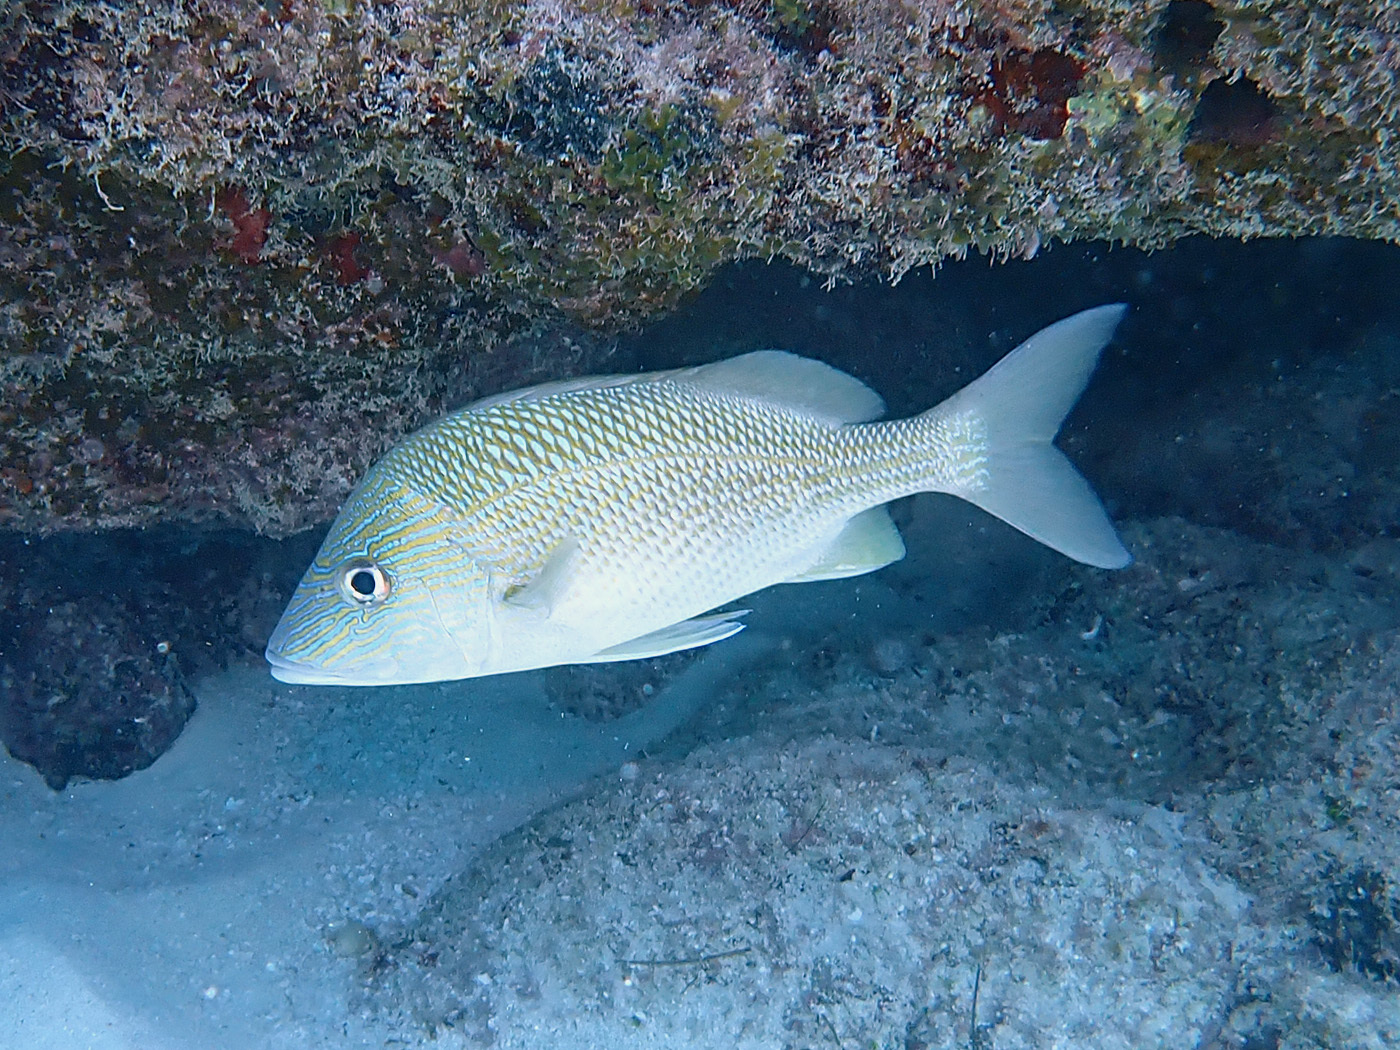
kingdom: Animalia
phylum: Chordata
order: Perciformes
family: Haemulidae
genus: Haemulon
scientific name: Haemulon plumierii
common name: White grunt
